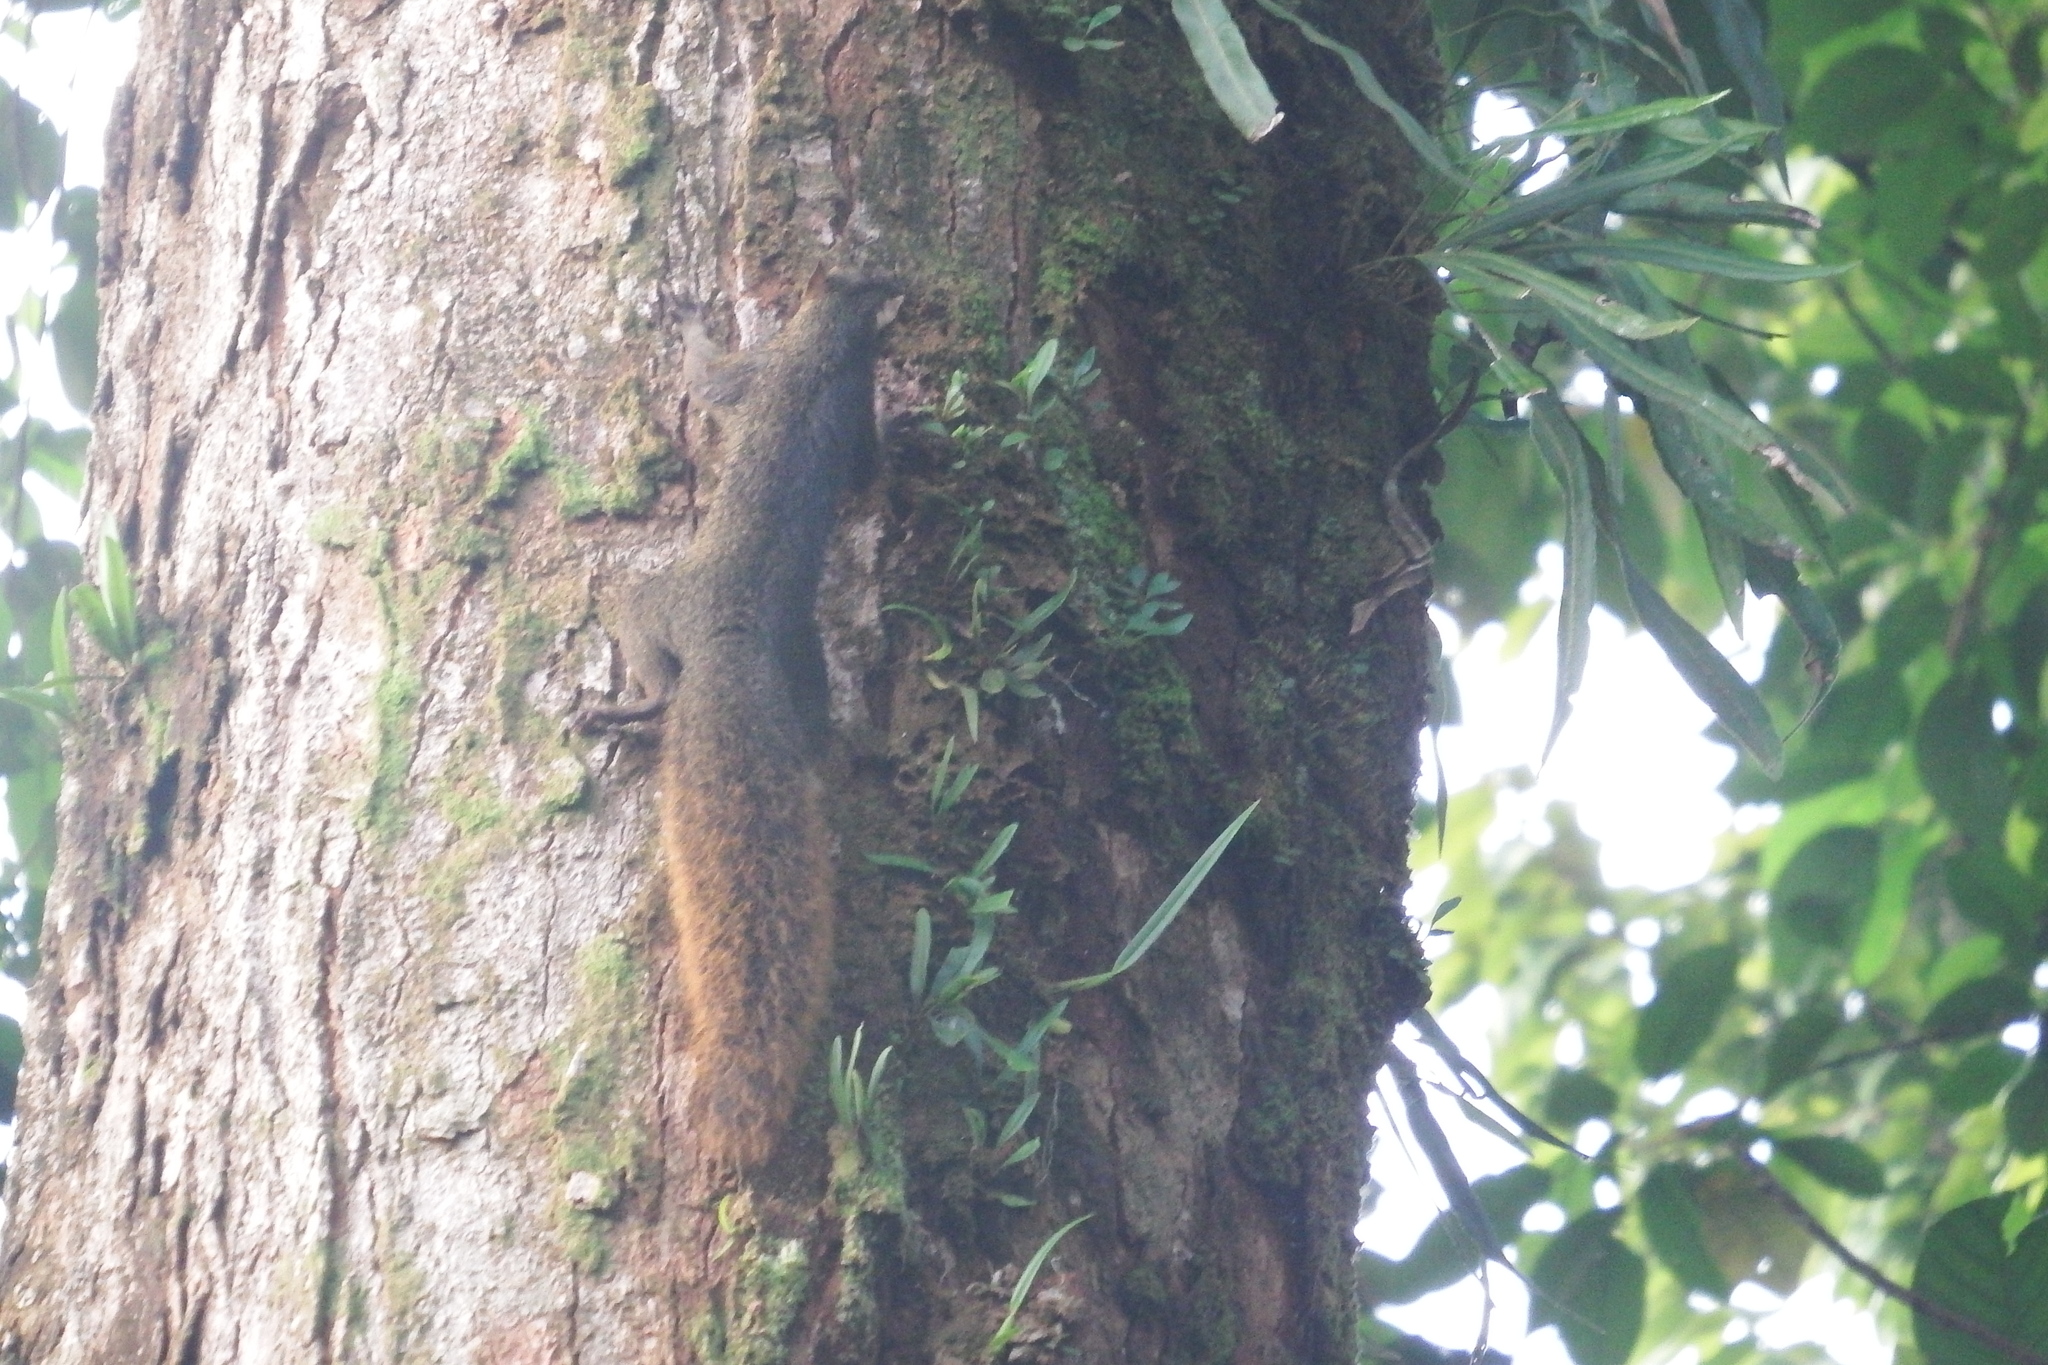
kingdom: Animalia
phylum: Chordata
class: Mammalia
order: Rodentia
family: Sciuridae
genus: Sciurus
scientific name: Sciurus granatensis
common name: Red-tailed squirrel
